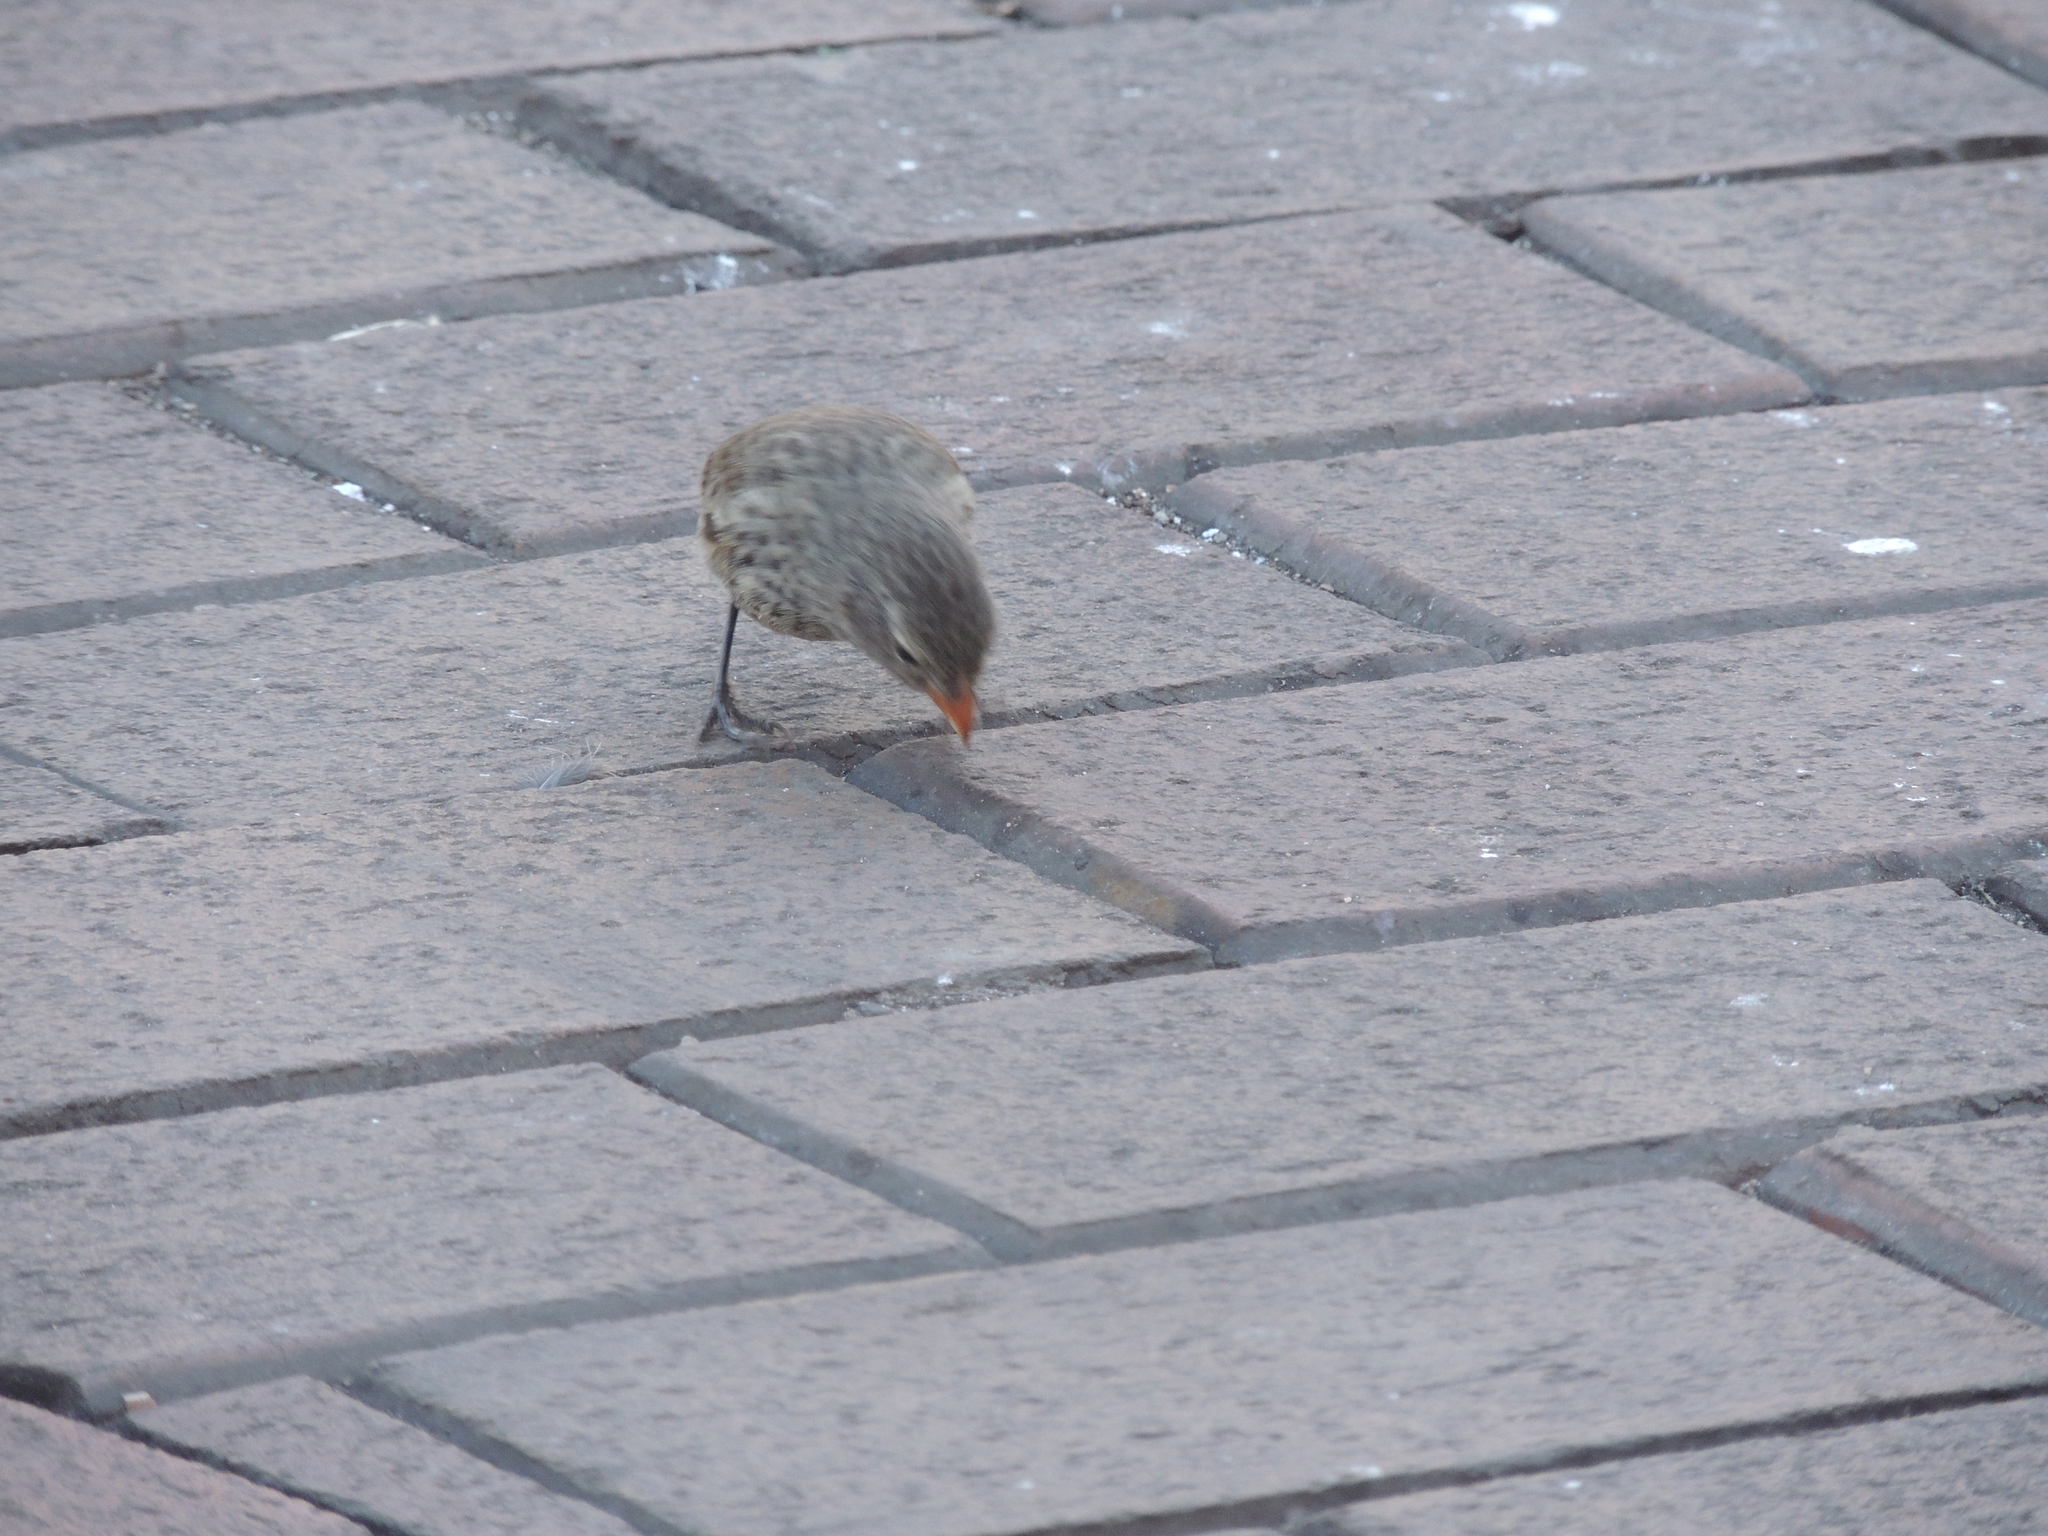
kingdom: Animalia
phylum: Chordata
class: Aves
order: Passeriformes
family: Thraupidae
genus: Geospiza
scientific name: Geospiza fuliginosa
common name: Small ground finch
